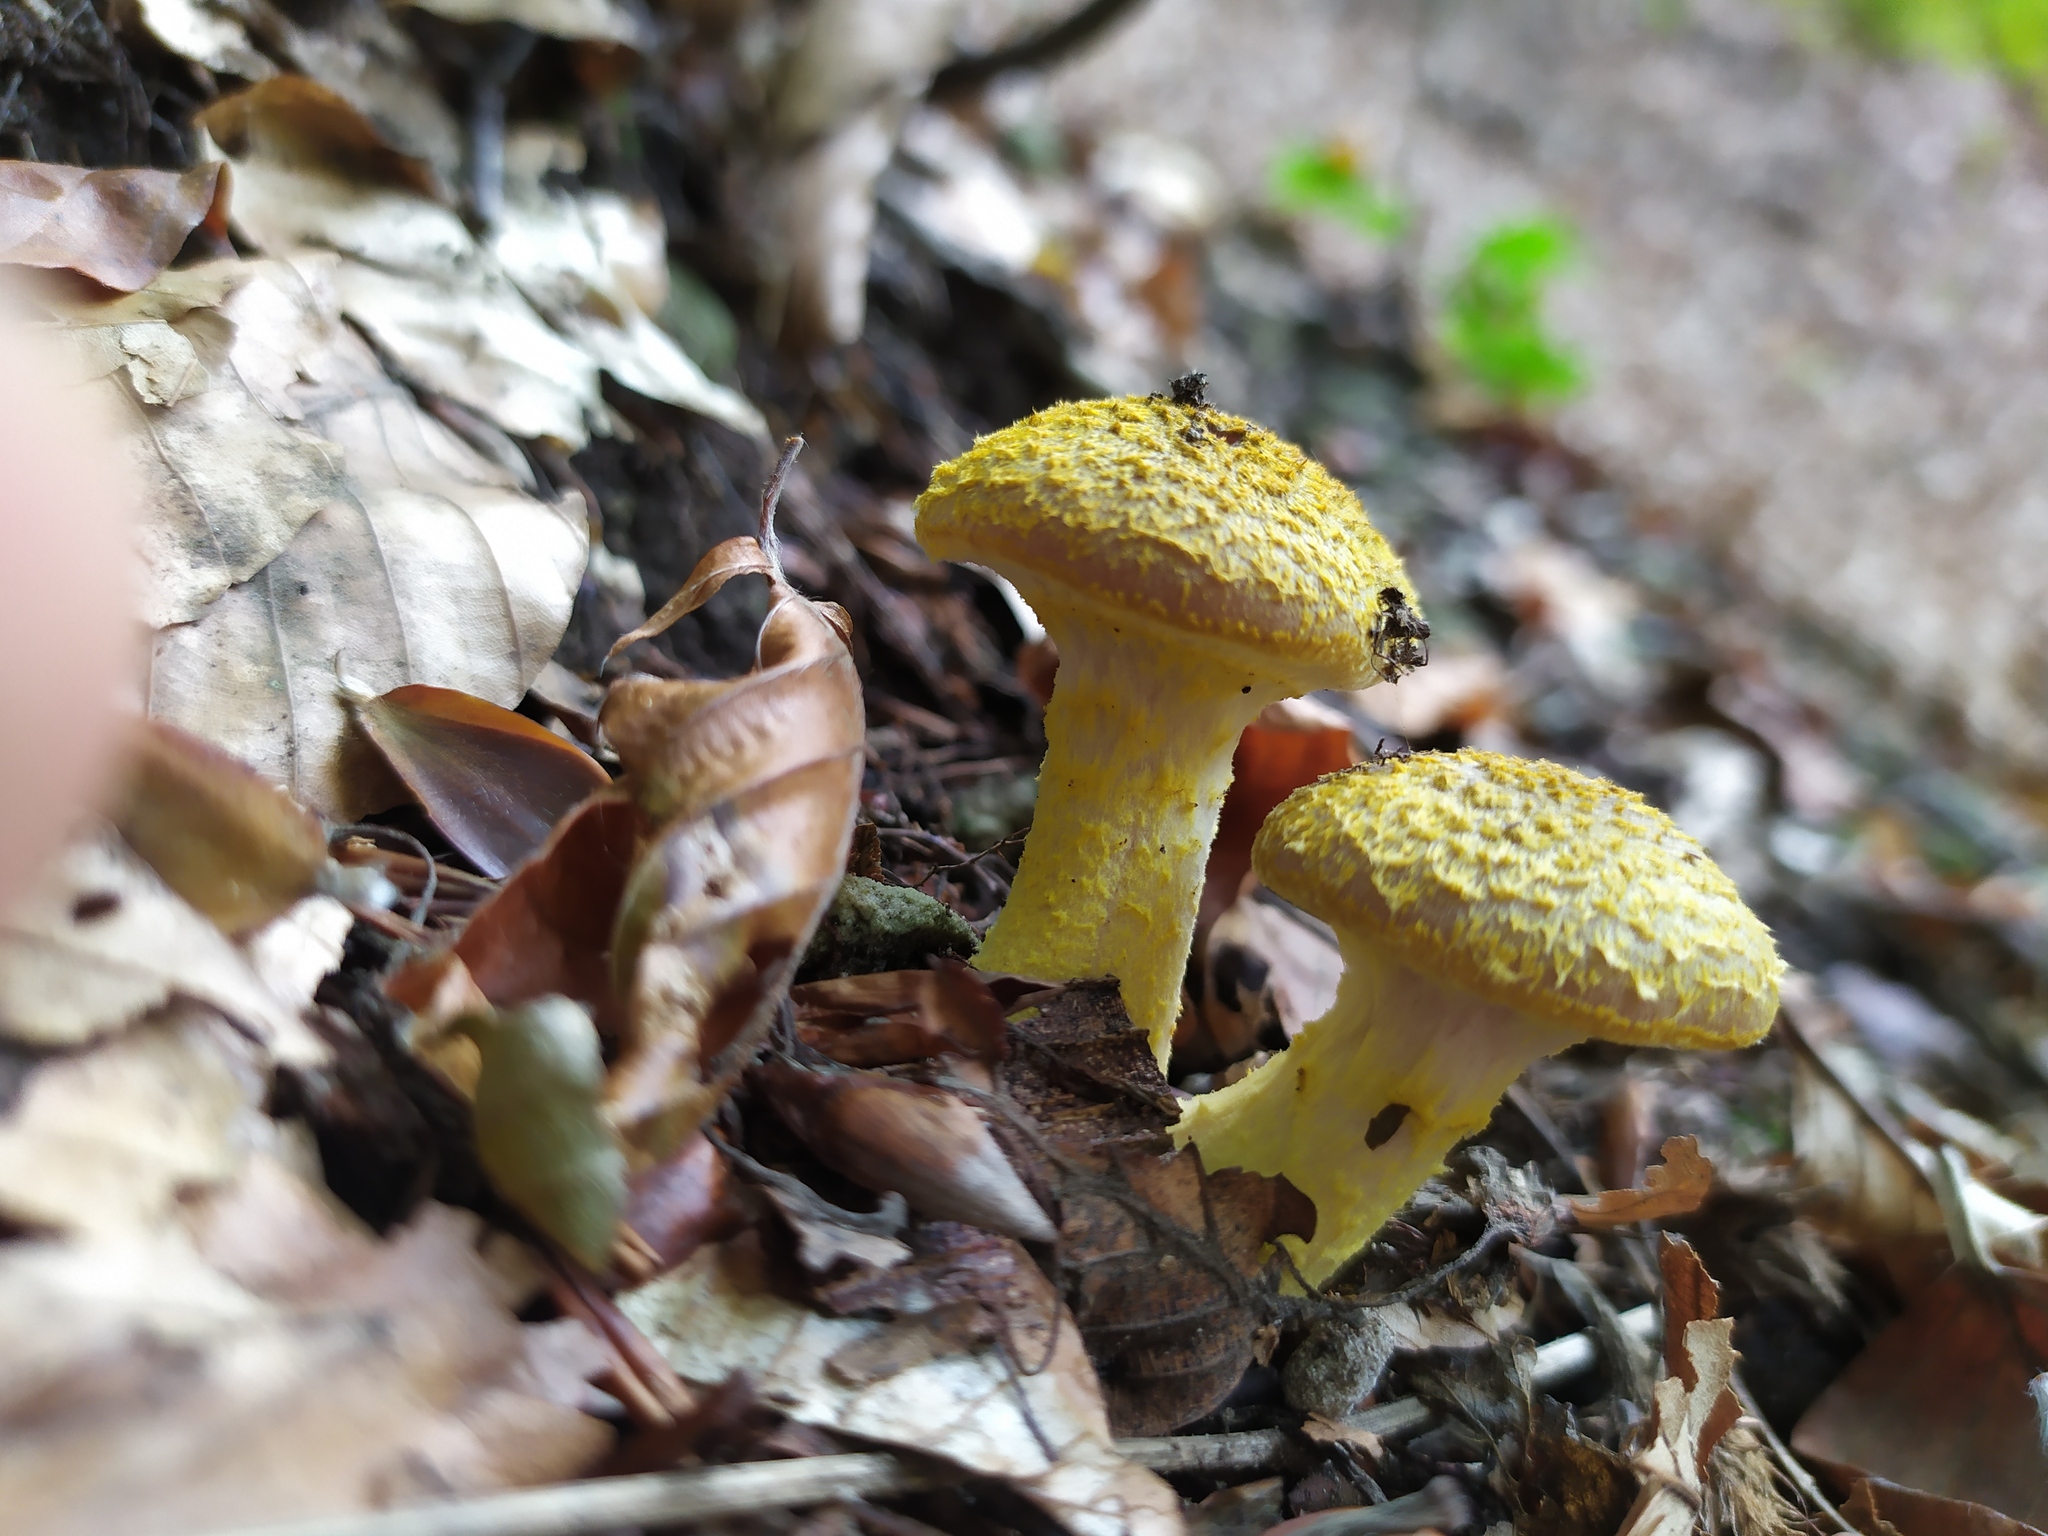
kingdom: Fungi
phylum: Basidiomycota
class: Agaricomycetes
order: Agaricales
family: Physalacriaceae
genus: Armillaria
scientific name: Armillaria gallica
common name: Bulbous honey fungus
